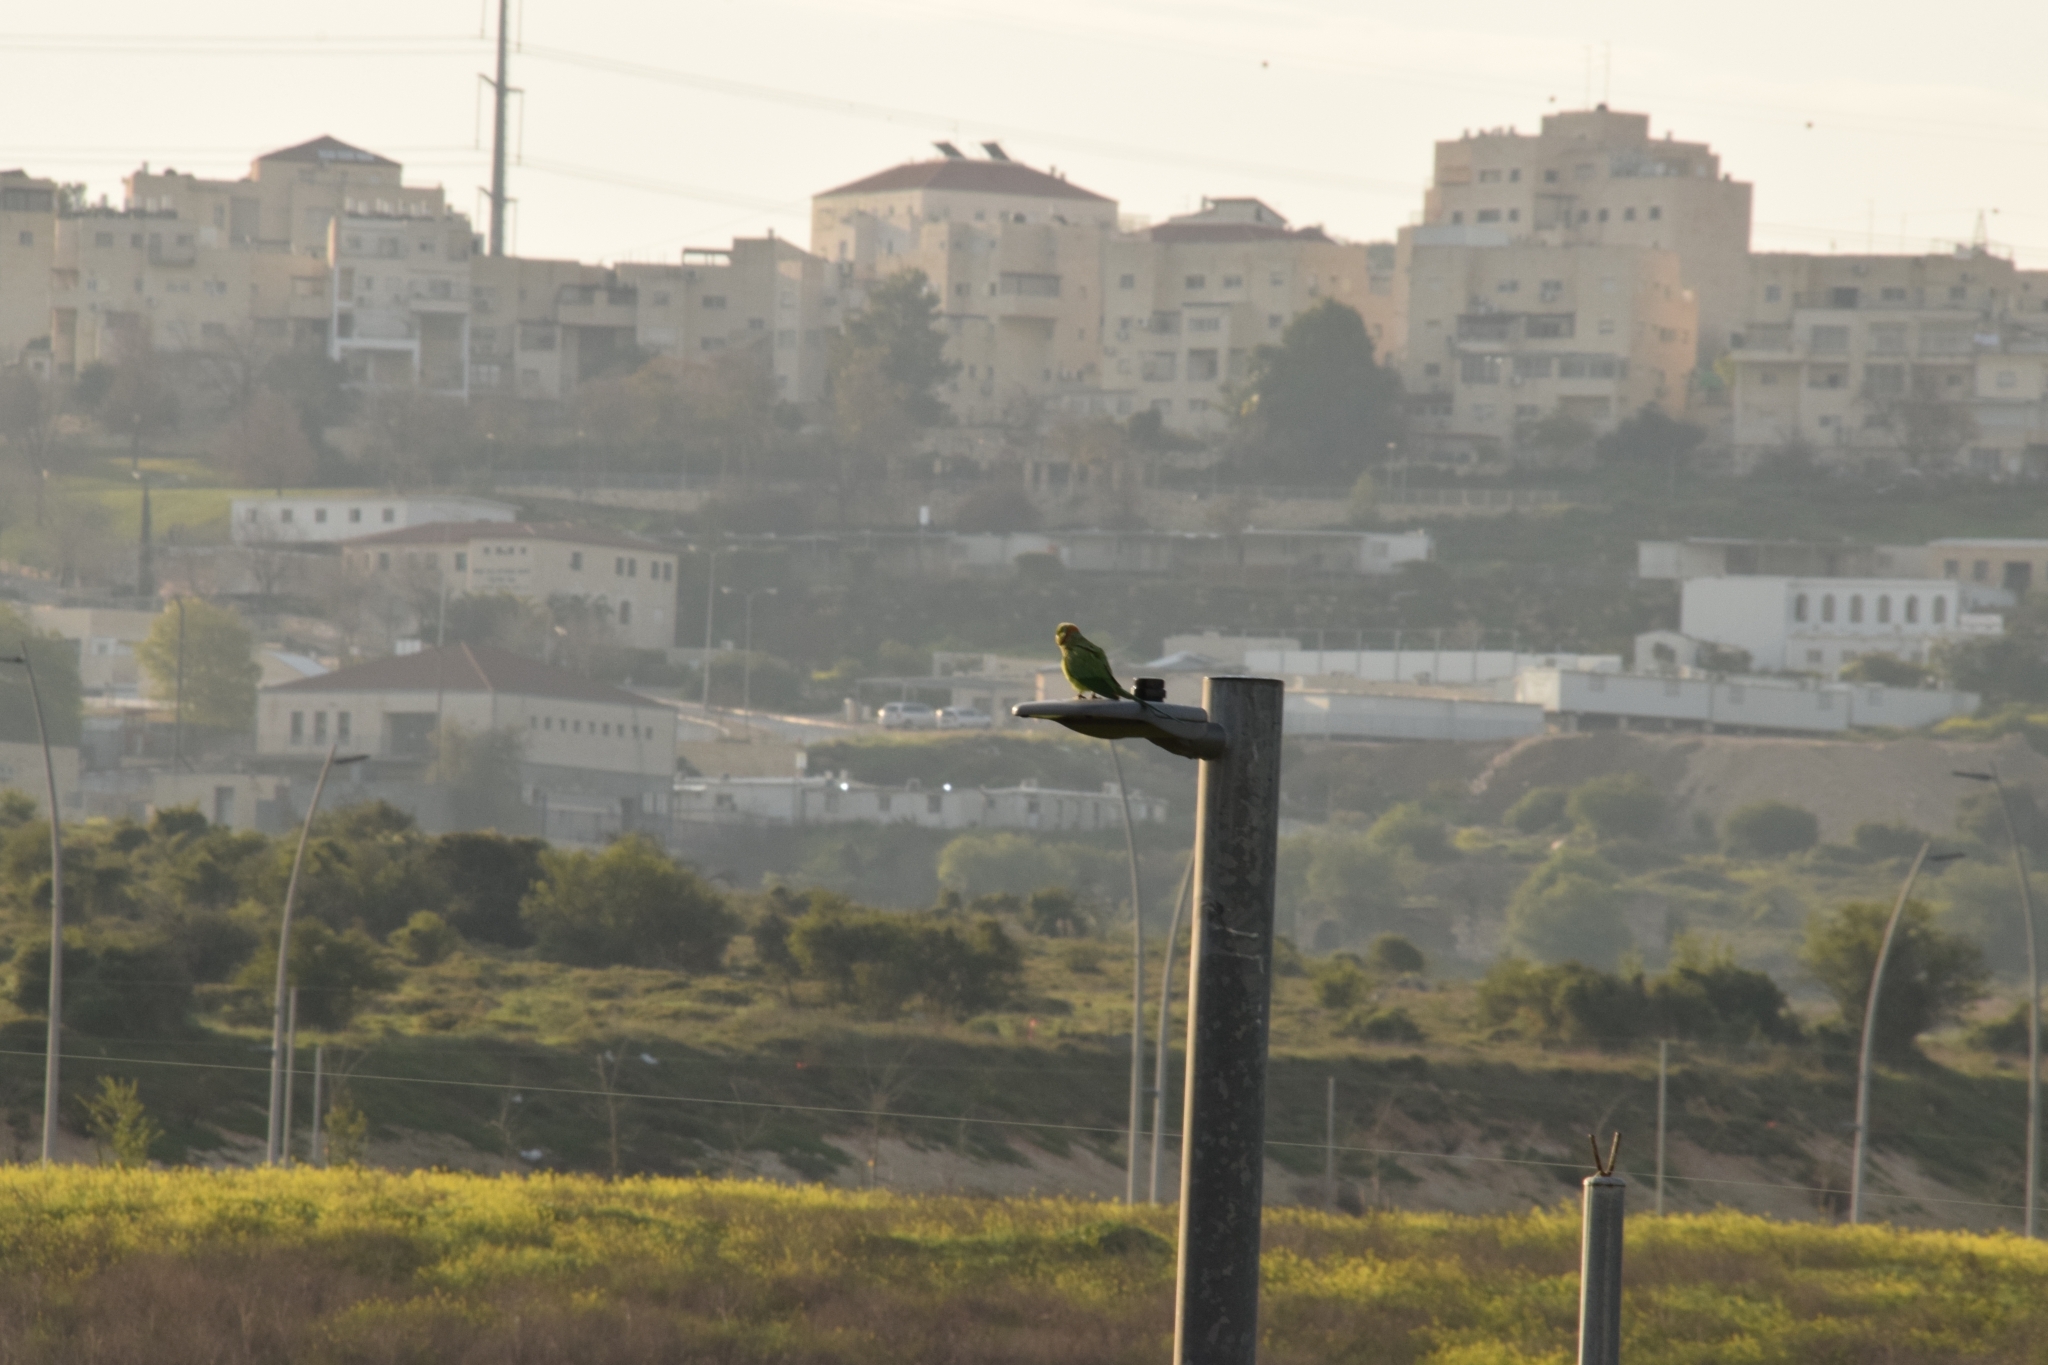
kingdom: Animalia
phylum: Chordata
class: Aves
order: Psittaciformes
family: Psittacidae
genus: Psittacula
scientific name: Psittacula krameri
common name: Rose-ringed parakeet
